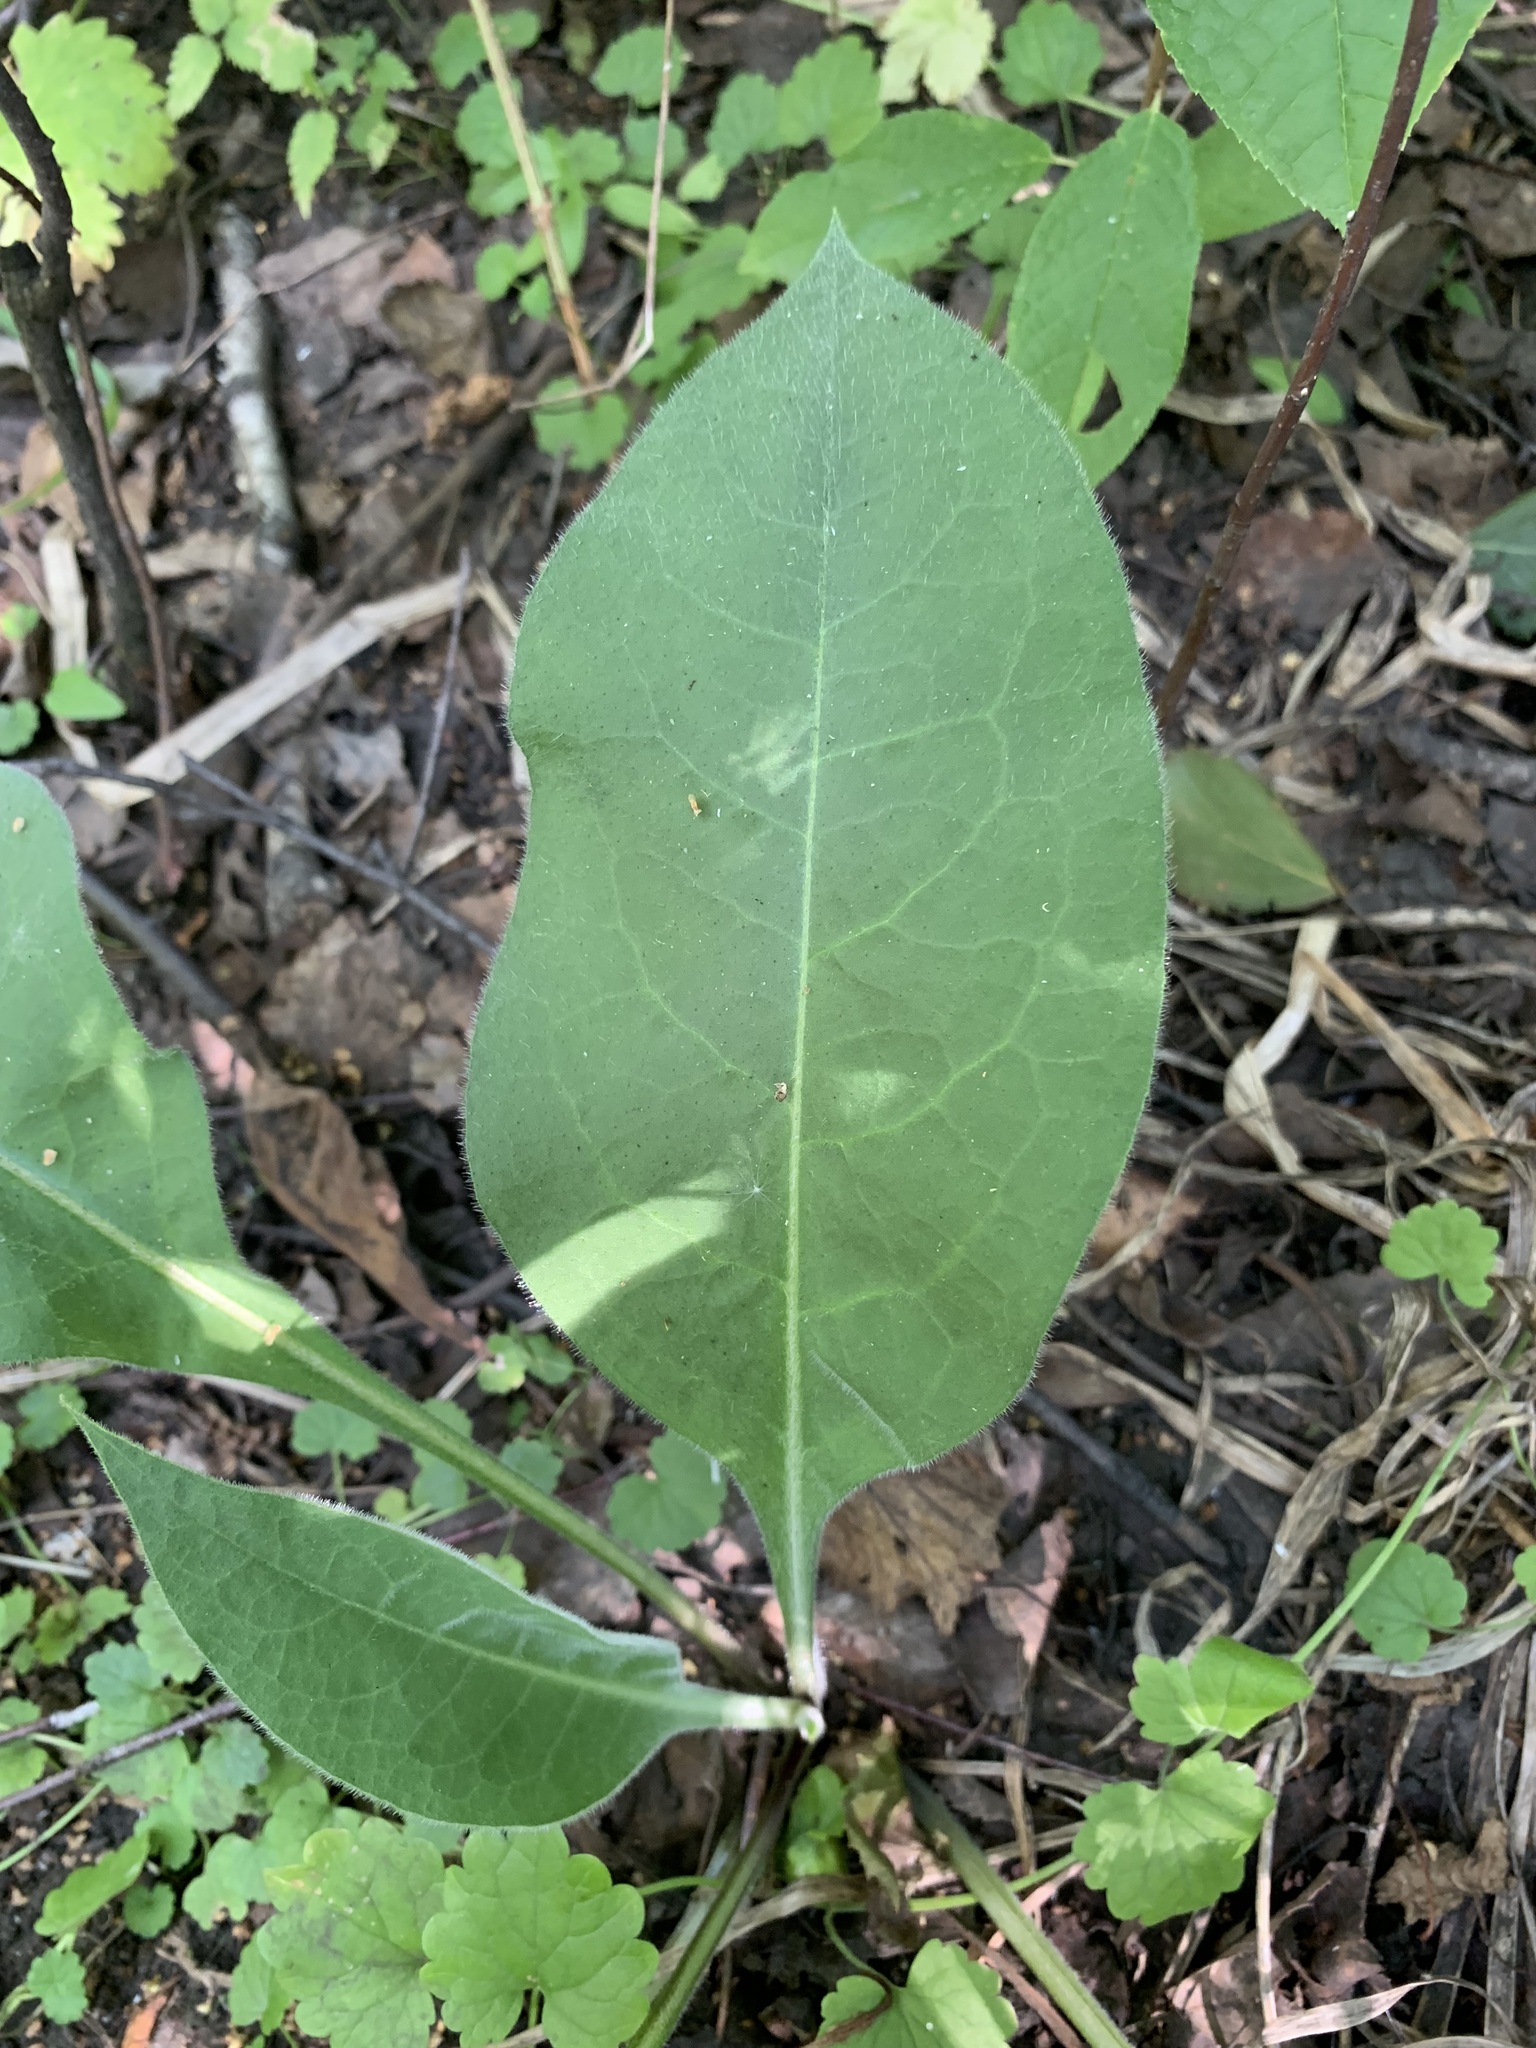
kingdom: Plantae
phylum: Tracheophyta
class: Magnoliopsida
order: Boraginales
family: Boraginaceae
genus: Pulmonaria
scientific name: Pulmonaria mollis
